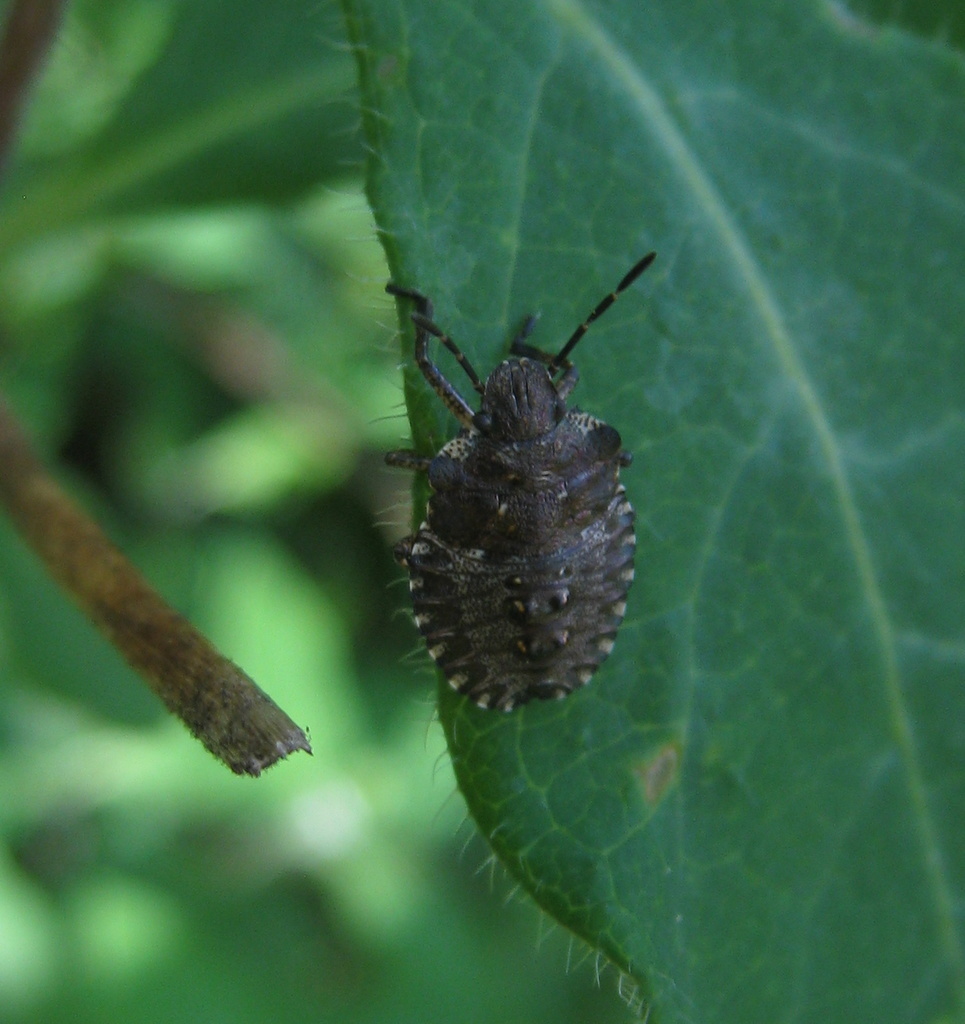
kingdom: Animalia
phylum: Arthropoda
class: Insecta
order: Hemiptera
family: Pentatomidae
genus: Pentatoma
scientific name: Pentatoma rufipes
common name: Forest bug
